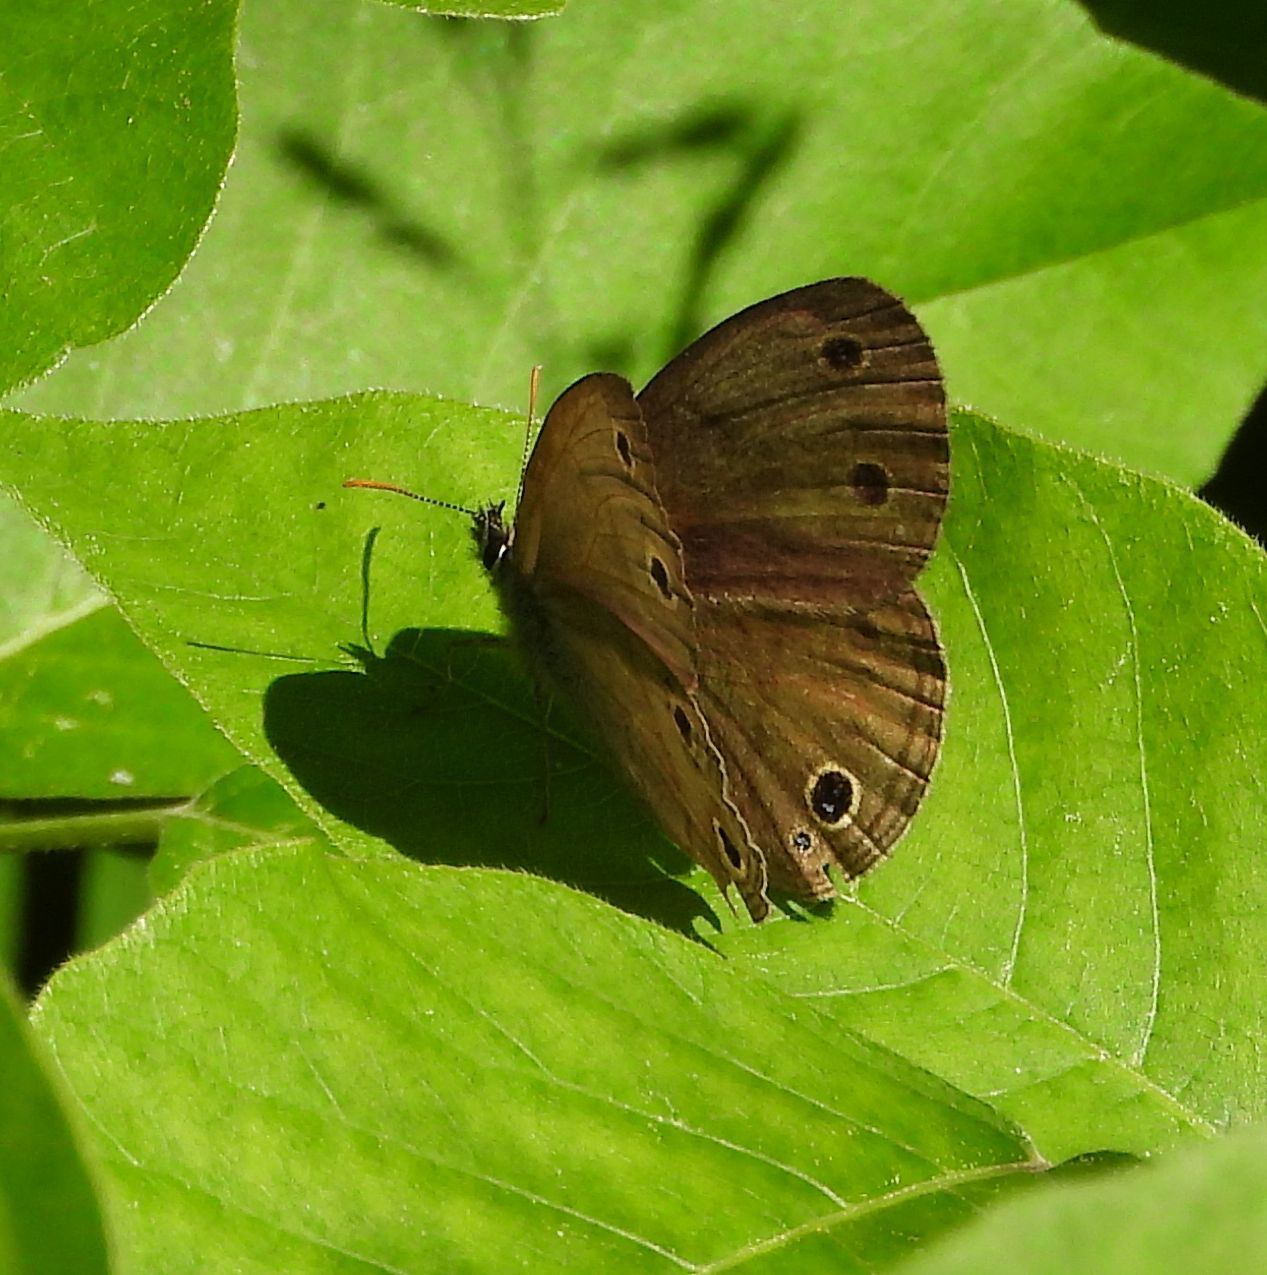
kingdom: Animalia
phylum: Arthropoda
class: Insecta
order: Lepidoptera
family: Nymphalidae
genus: Euptychia
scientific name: Euptychia cymela
